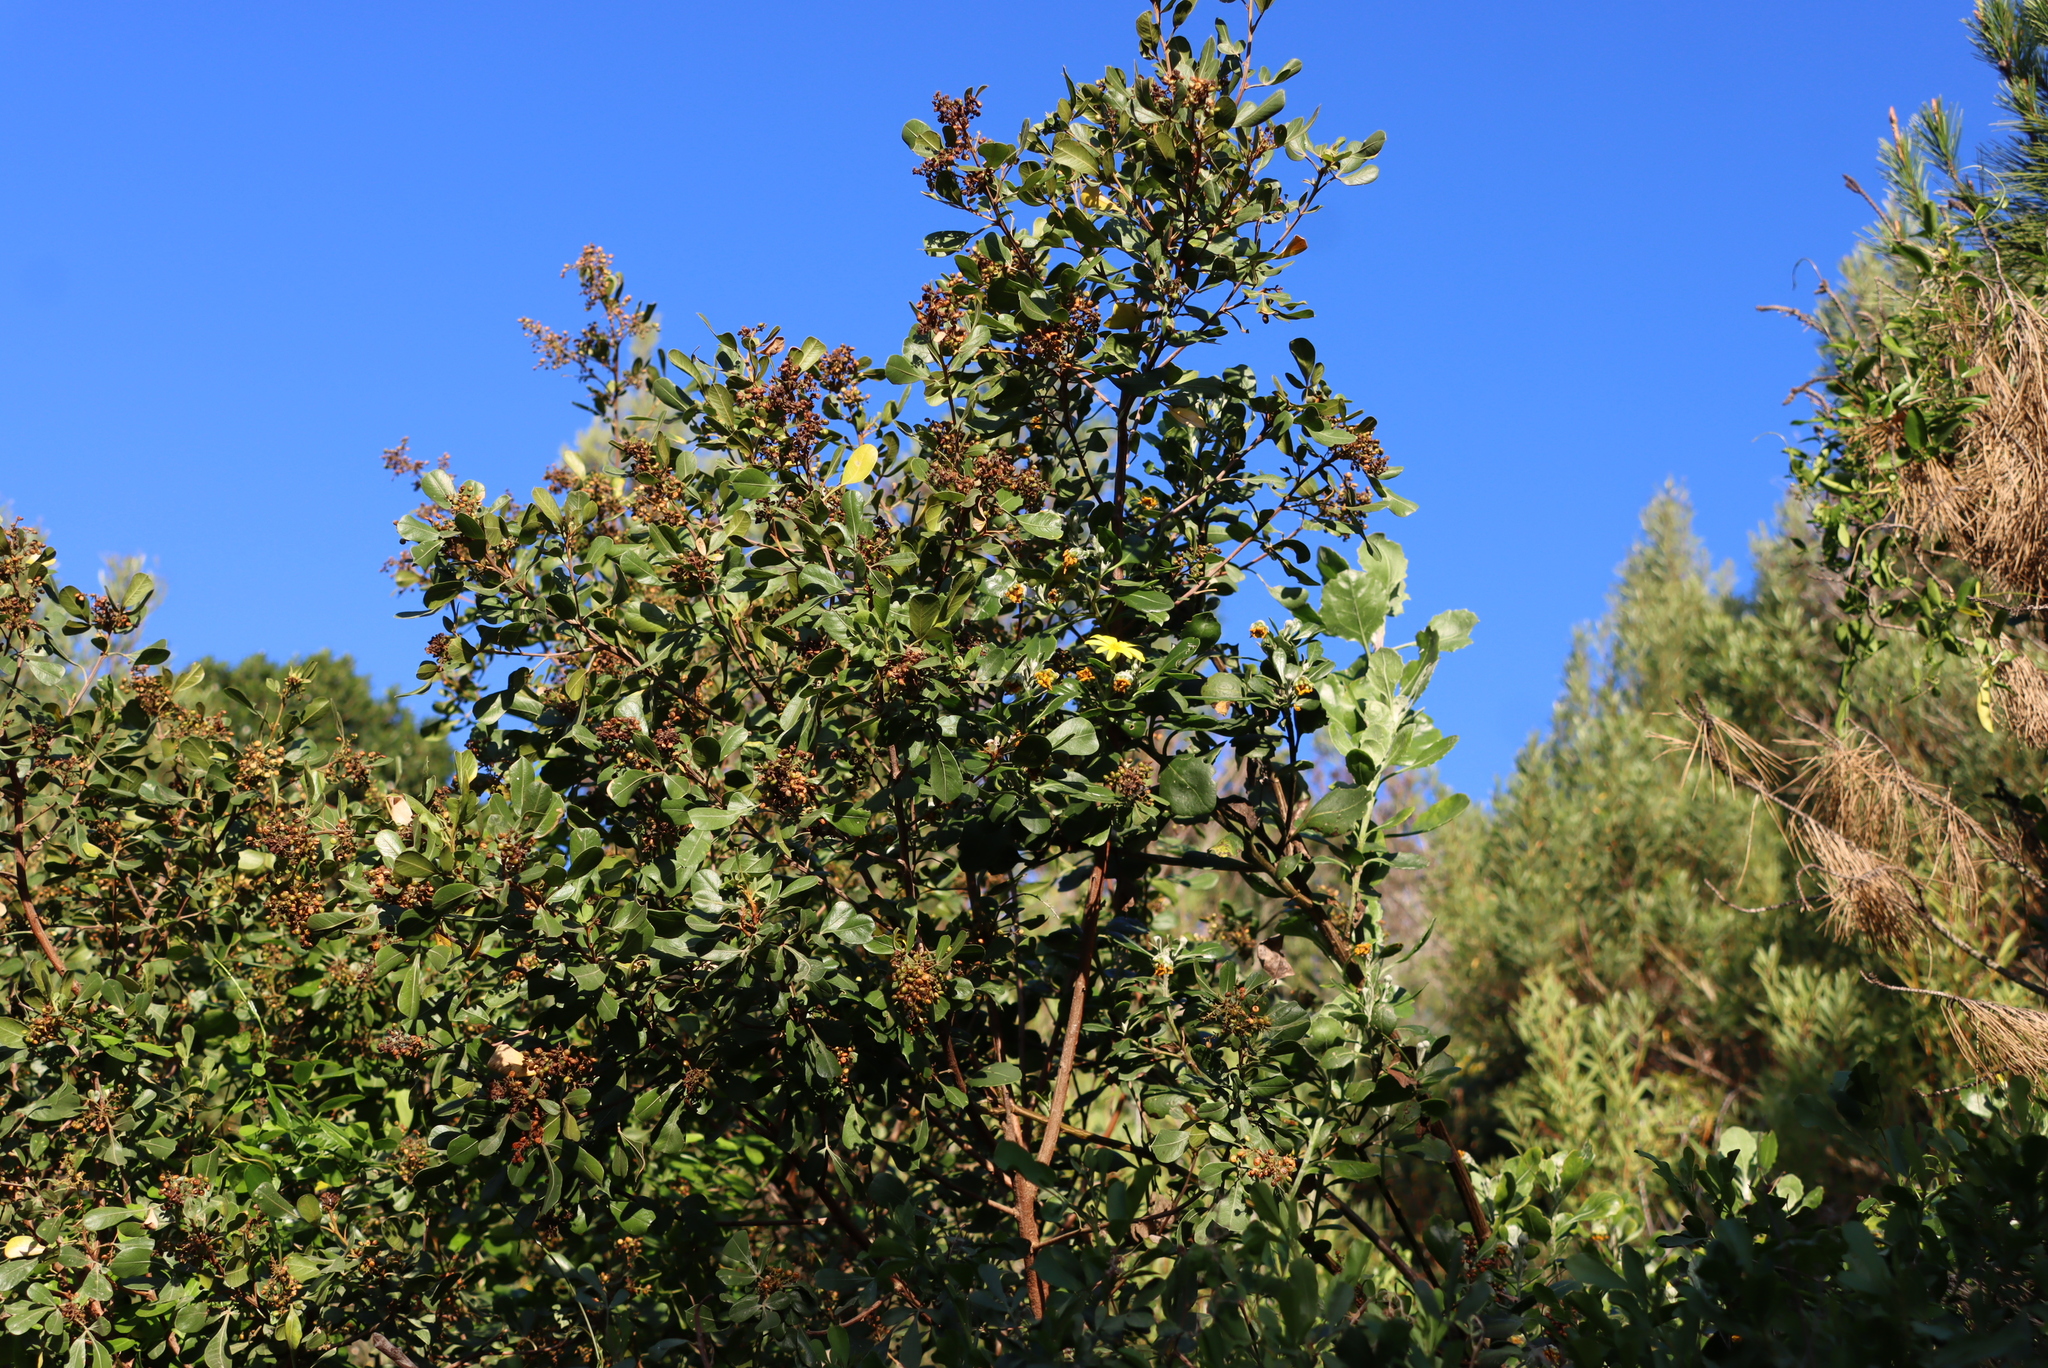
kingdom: Plantae
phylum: Tracheophyta
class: Magnoliopsida
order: Sapindales
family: Anacardiaceae
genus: Searsia
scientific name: Searsia pallens
